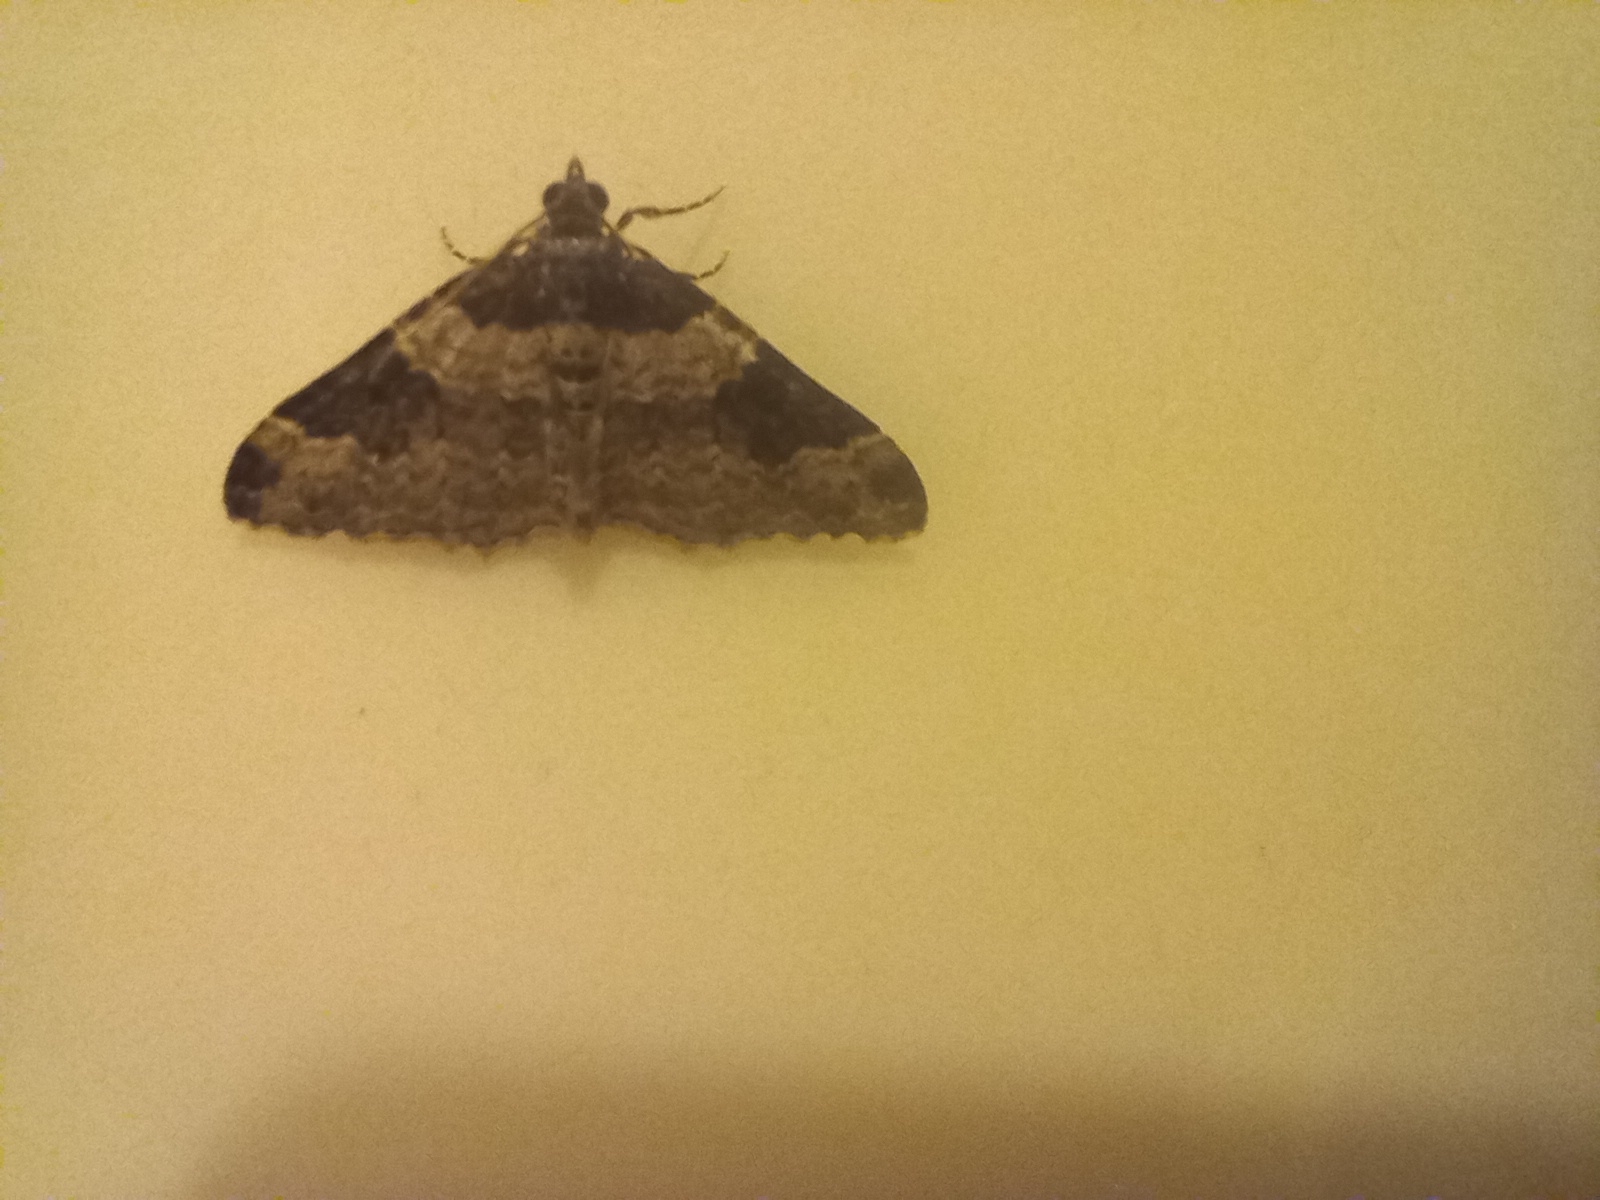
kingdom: Animalia
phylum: Arthropoda
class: Insecta
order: Lepidoptera
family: Geometridae
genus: Xanthorhoe
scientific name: Xanthorhoe fluctuata
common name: Garden carpet
